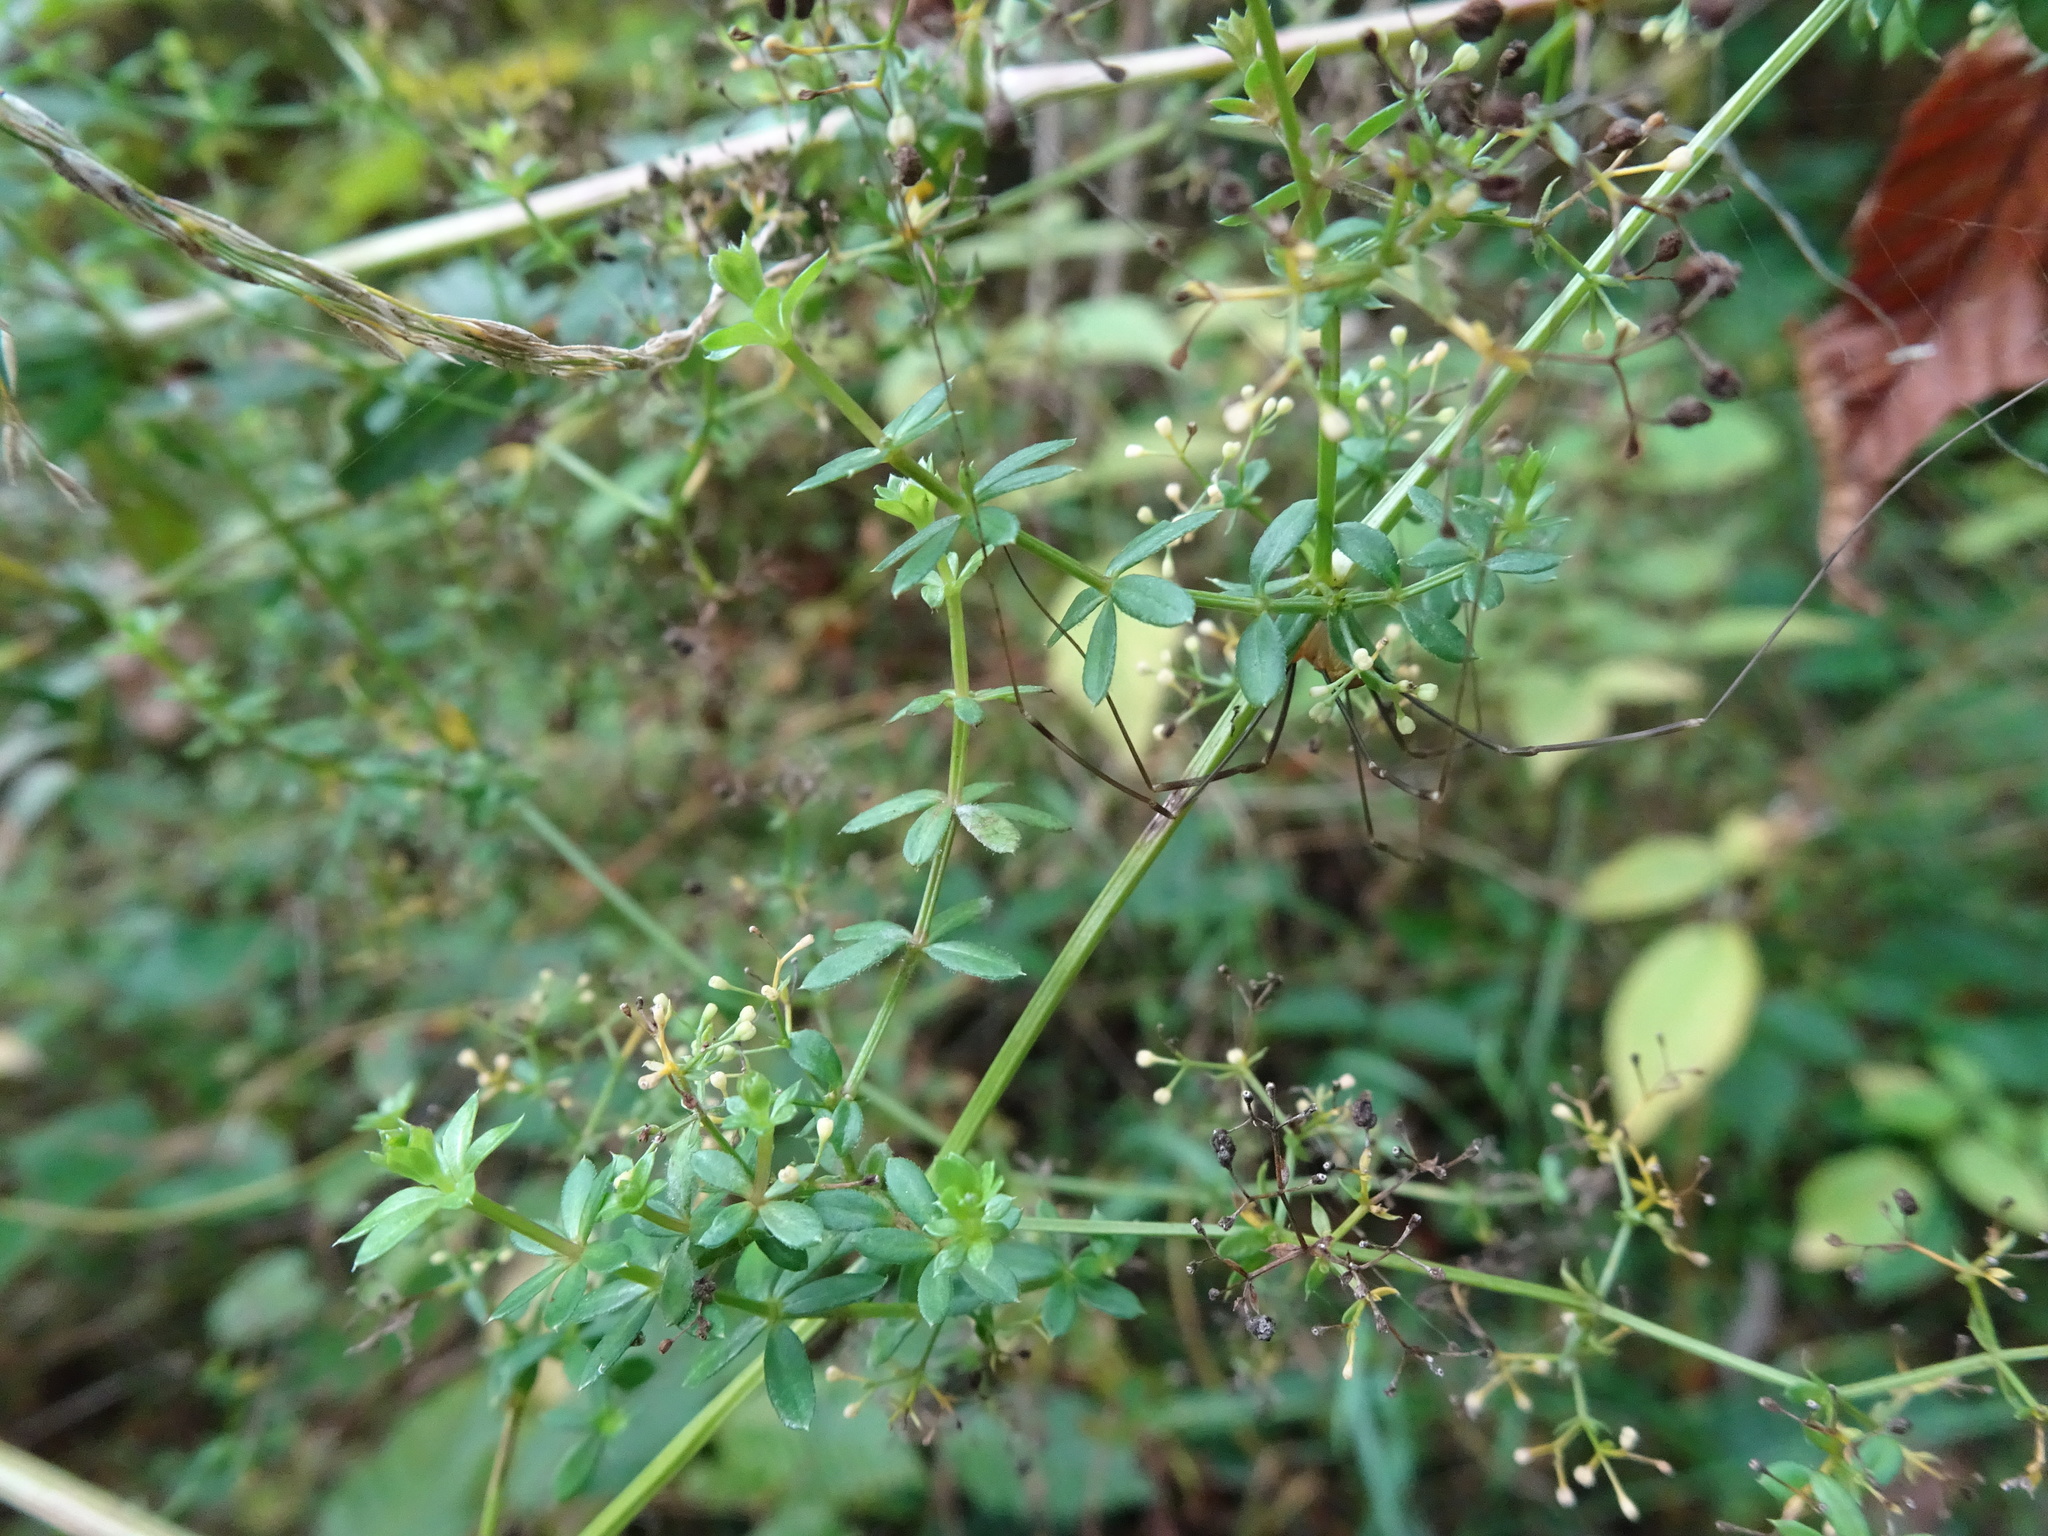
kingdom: Plantae
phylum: Tracheophyta
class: Magnoliopsida
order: Gentianales
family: Rubiaceae
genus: Galium
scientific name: Galium mollugo
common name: Hedge bedstraw
